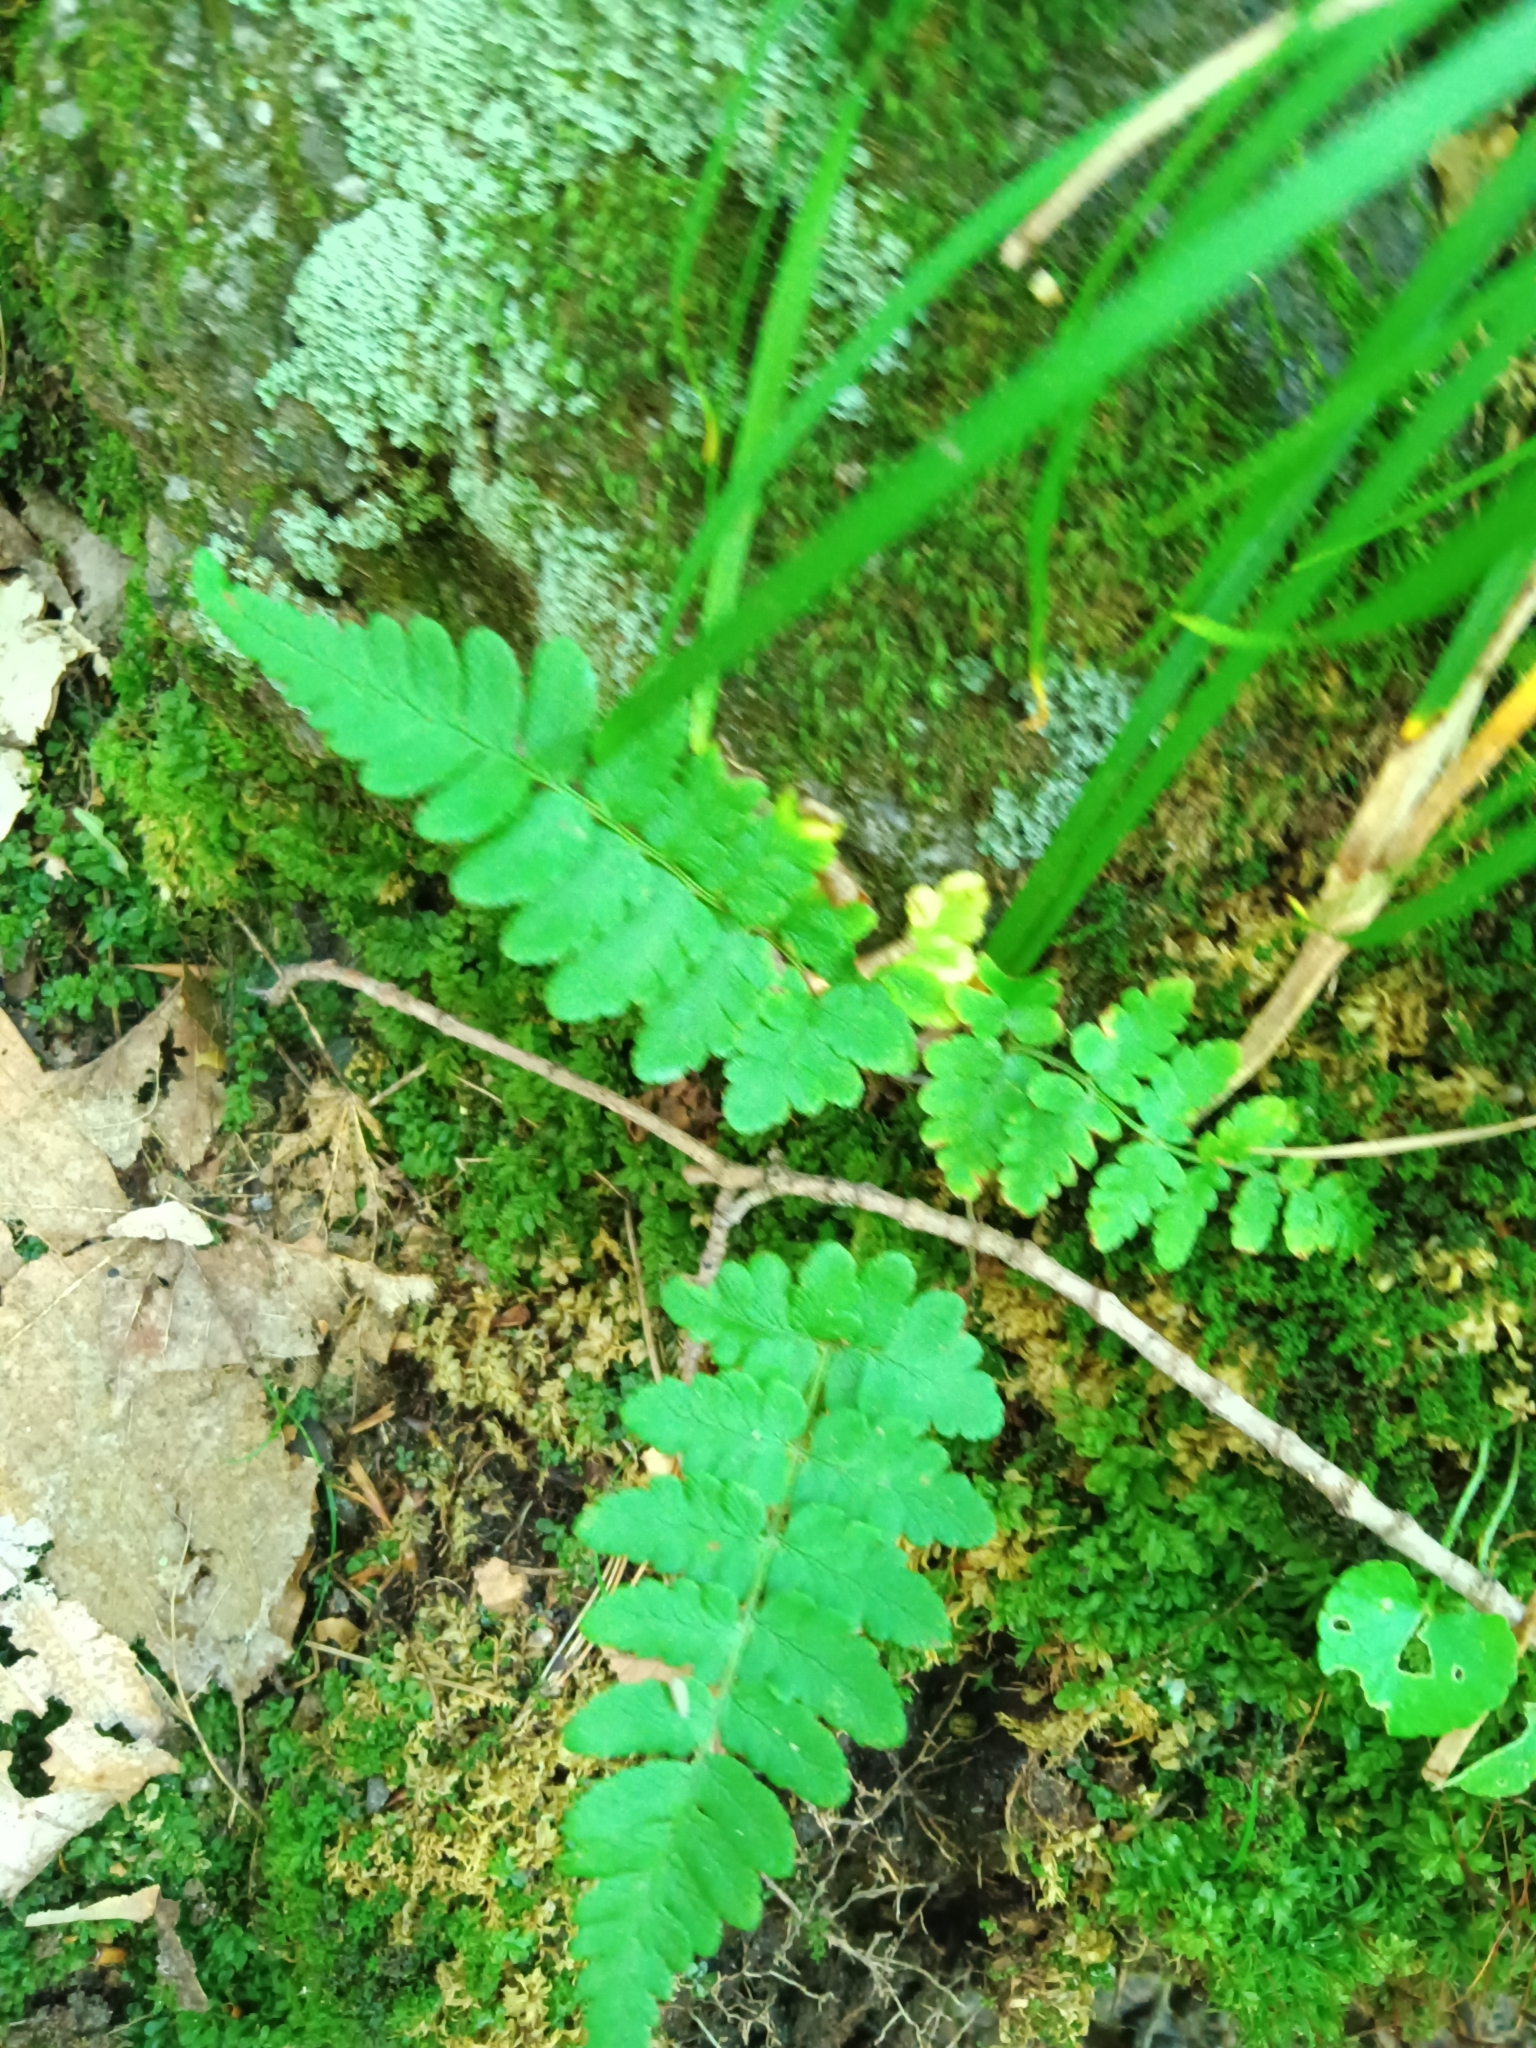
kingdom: Plantae
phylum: Tracheophyta
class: Polypodiopsida
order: Polypodiales
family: Dryopteridaceae
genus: Dryopteris
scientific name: Dryopteris marginalis
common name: Marginal wood fern
